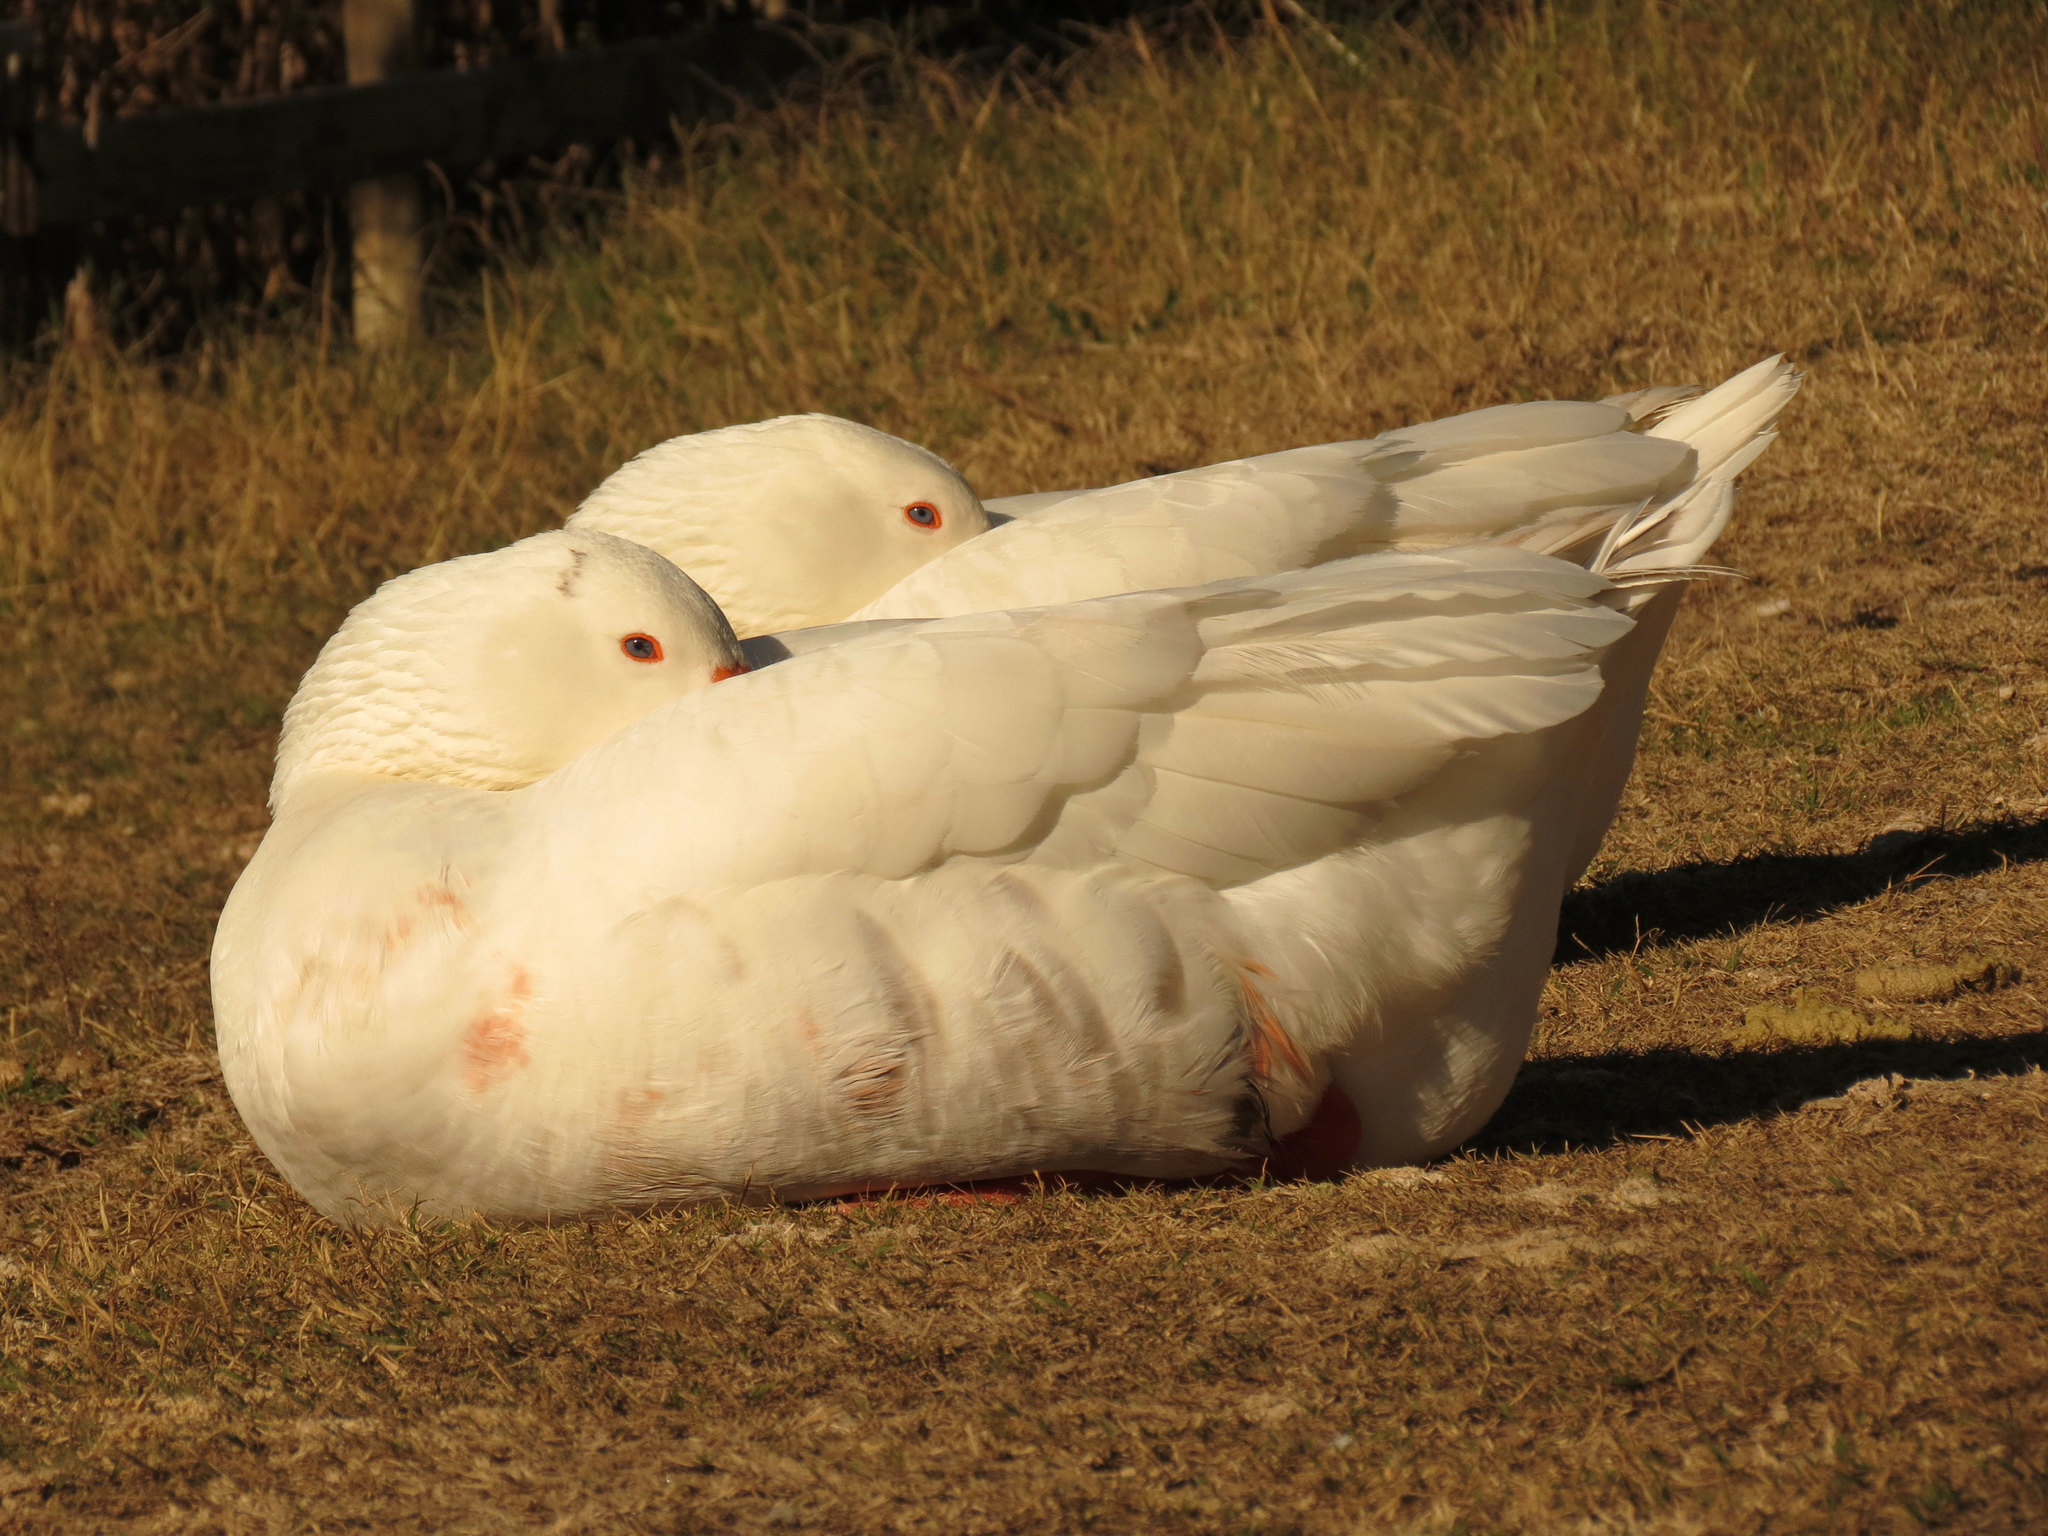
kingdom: Animalia
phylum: Chordata
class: Aves
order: Anseriformes
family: Anatidae
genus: Anser
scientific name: Anser anser
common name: Greylag goose
